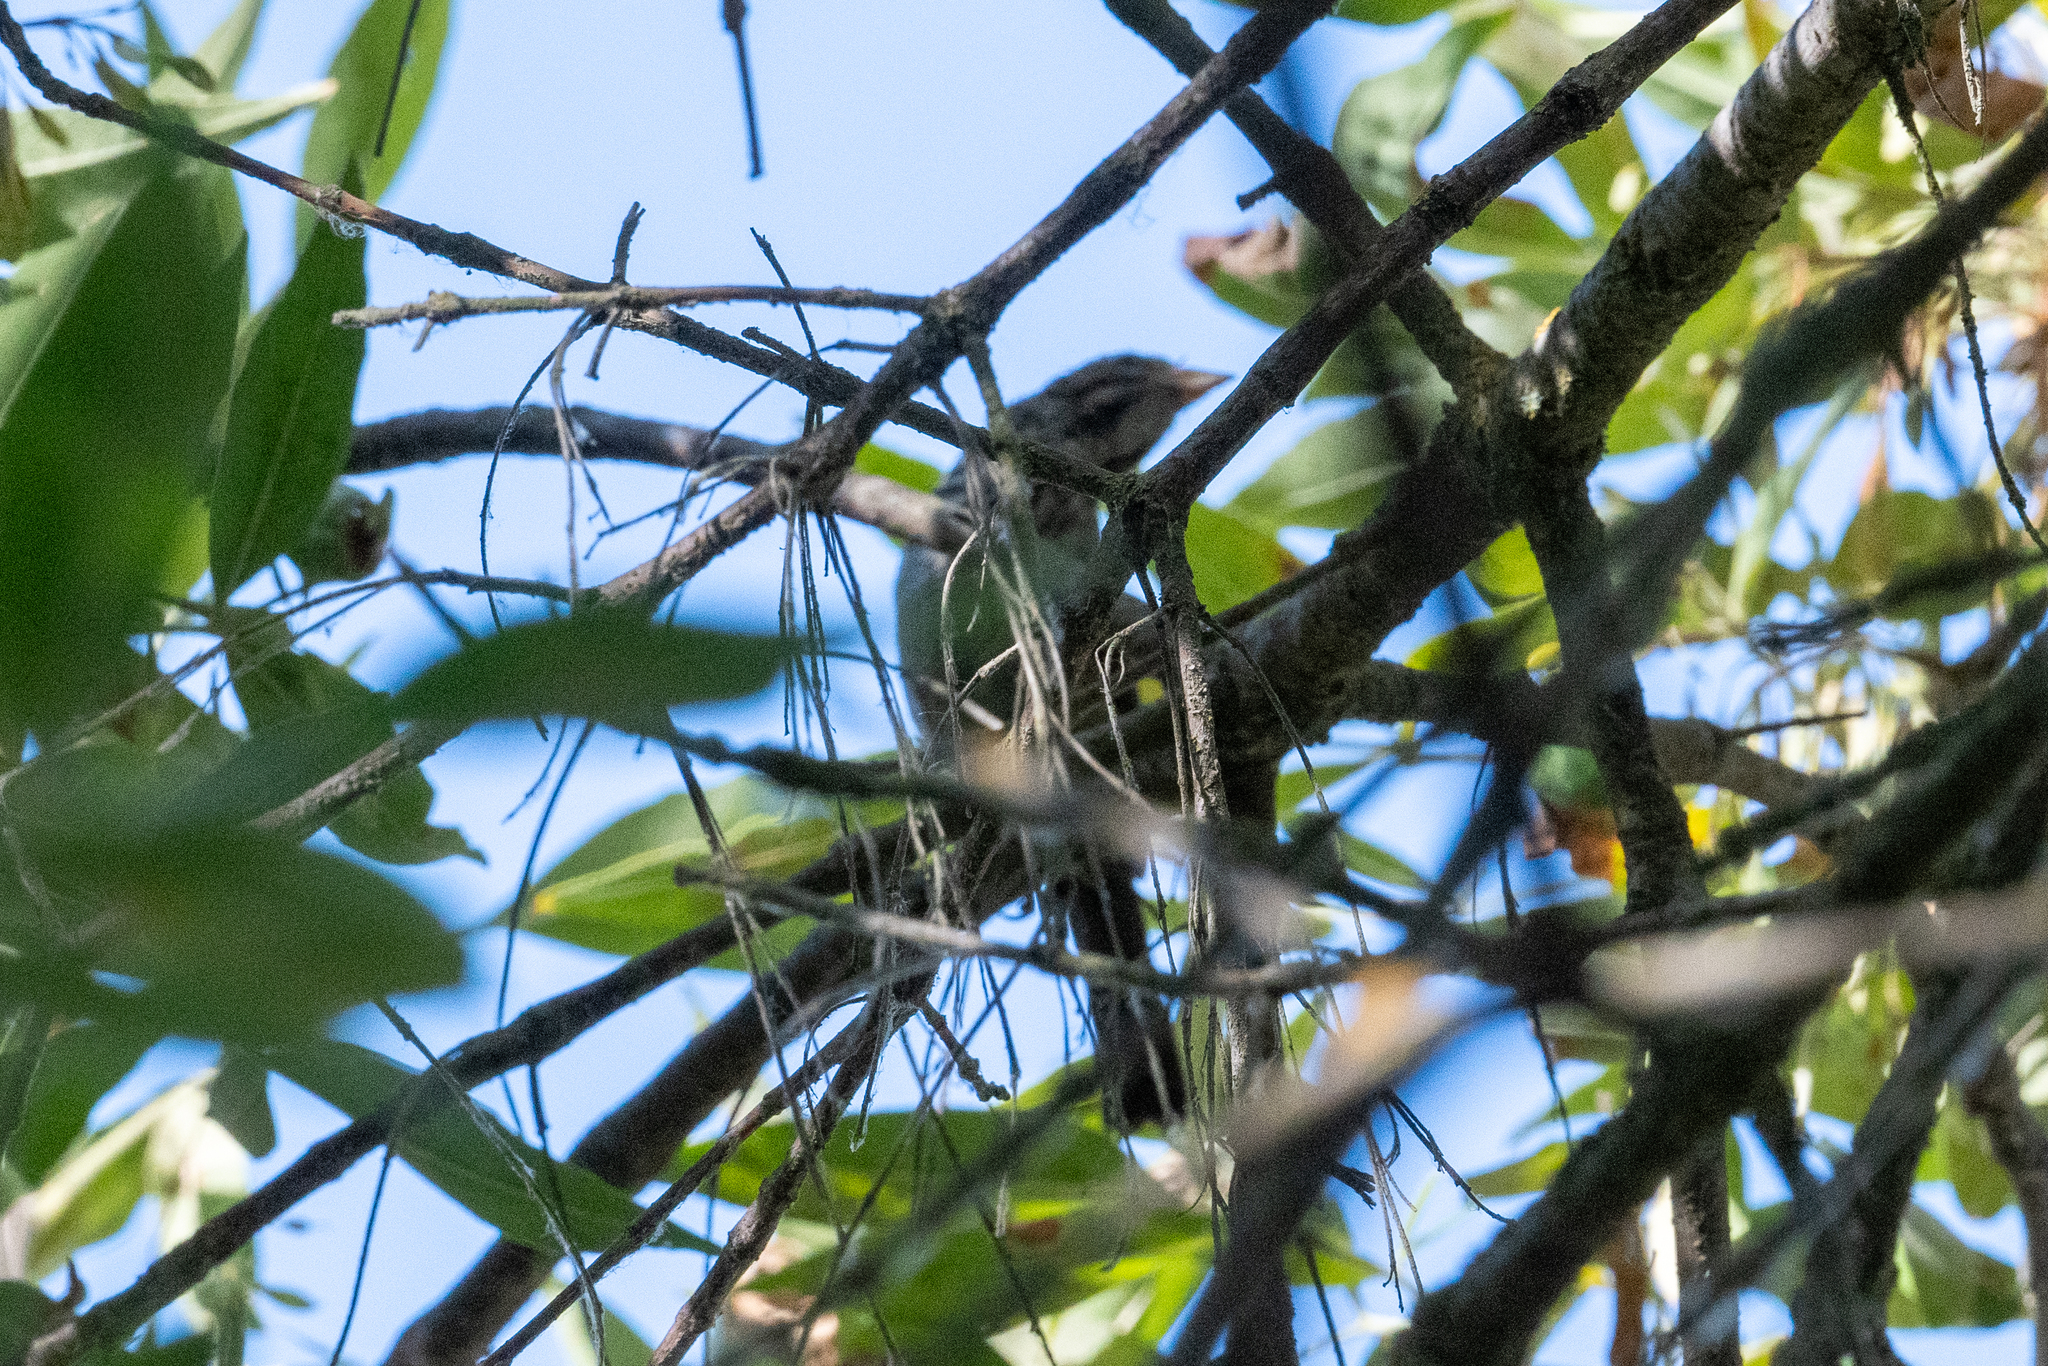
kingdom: Animalia
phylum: Chordata
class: Aves
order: Passeriformes
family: Passerellidae
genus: Melospiza
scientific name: Melospiza melodia
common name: Song sparrow
